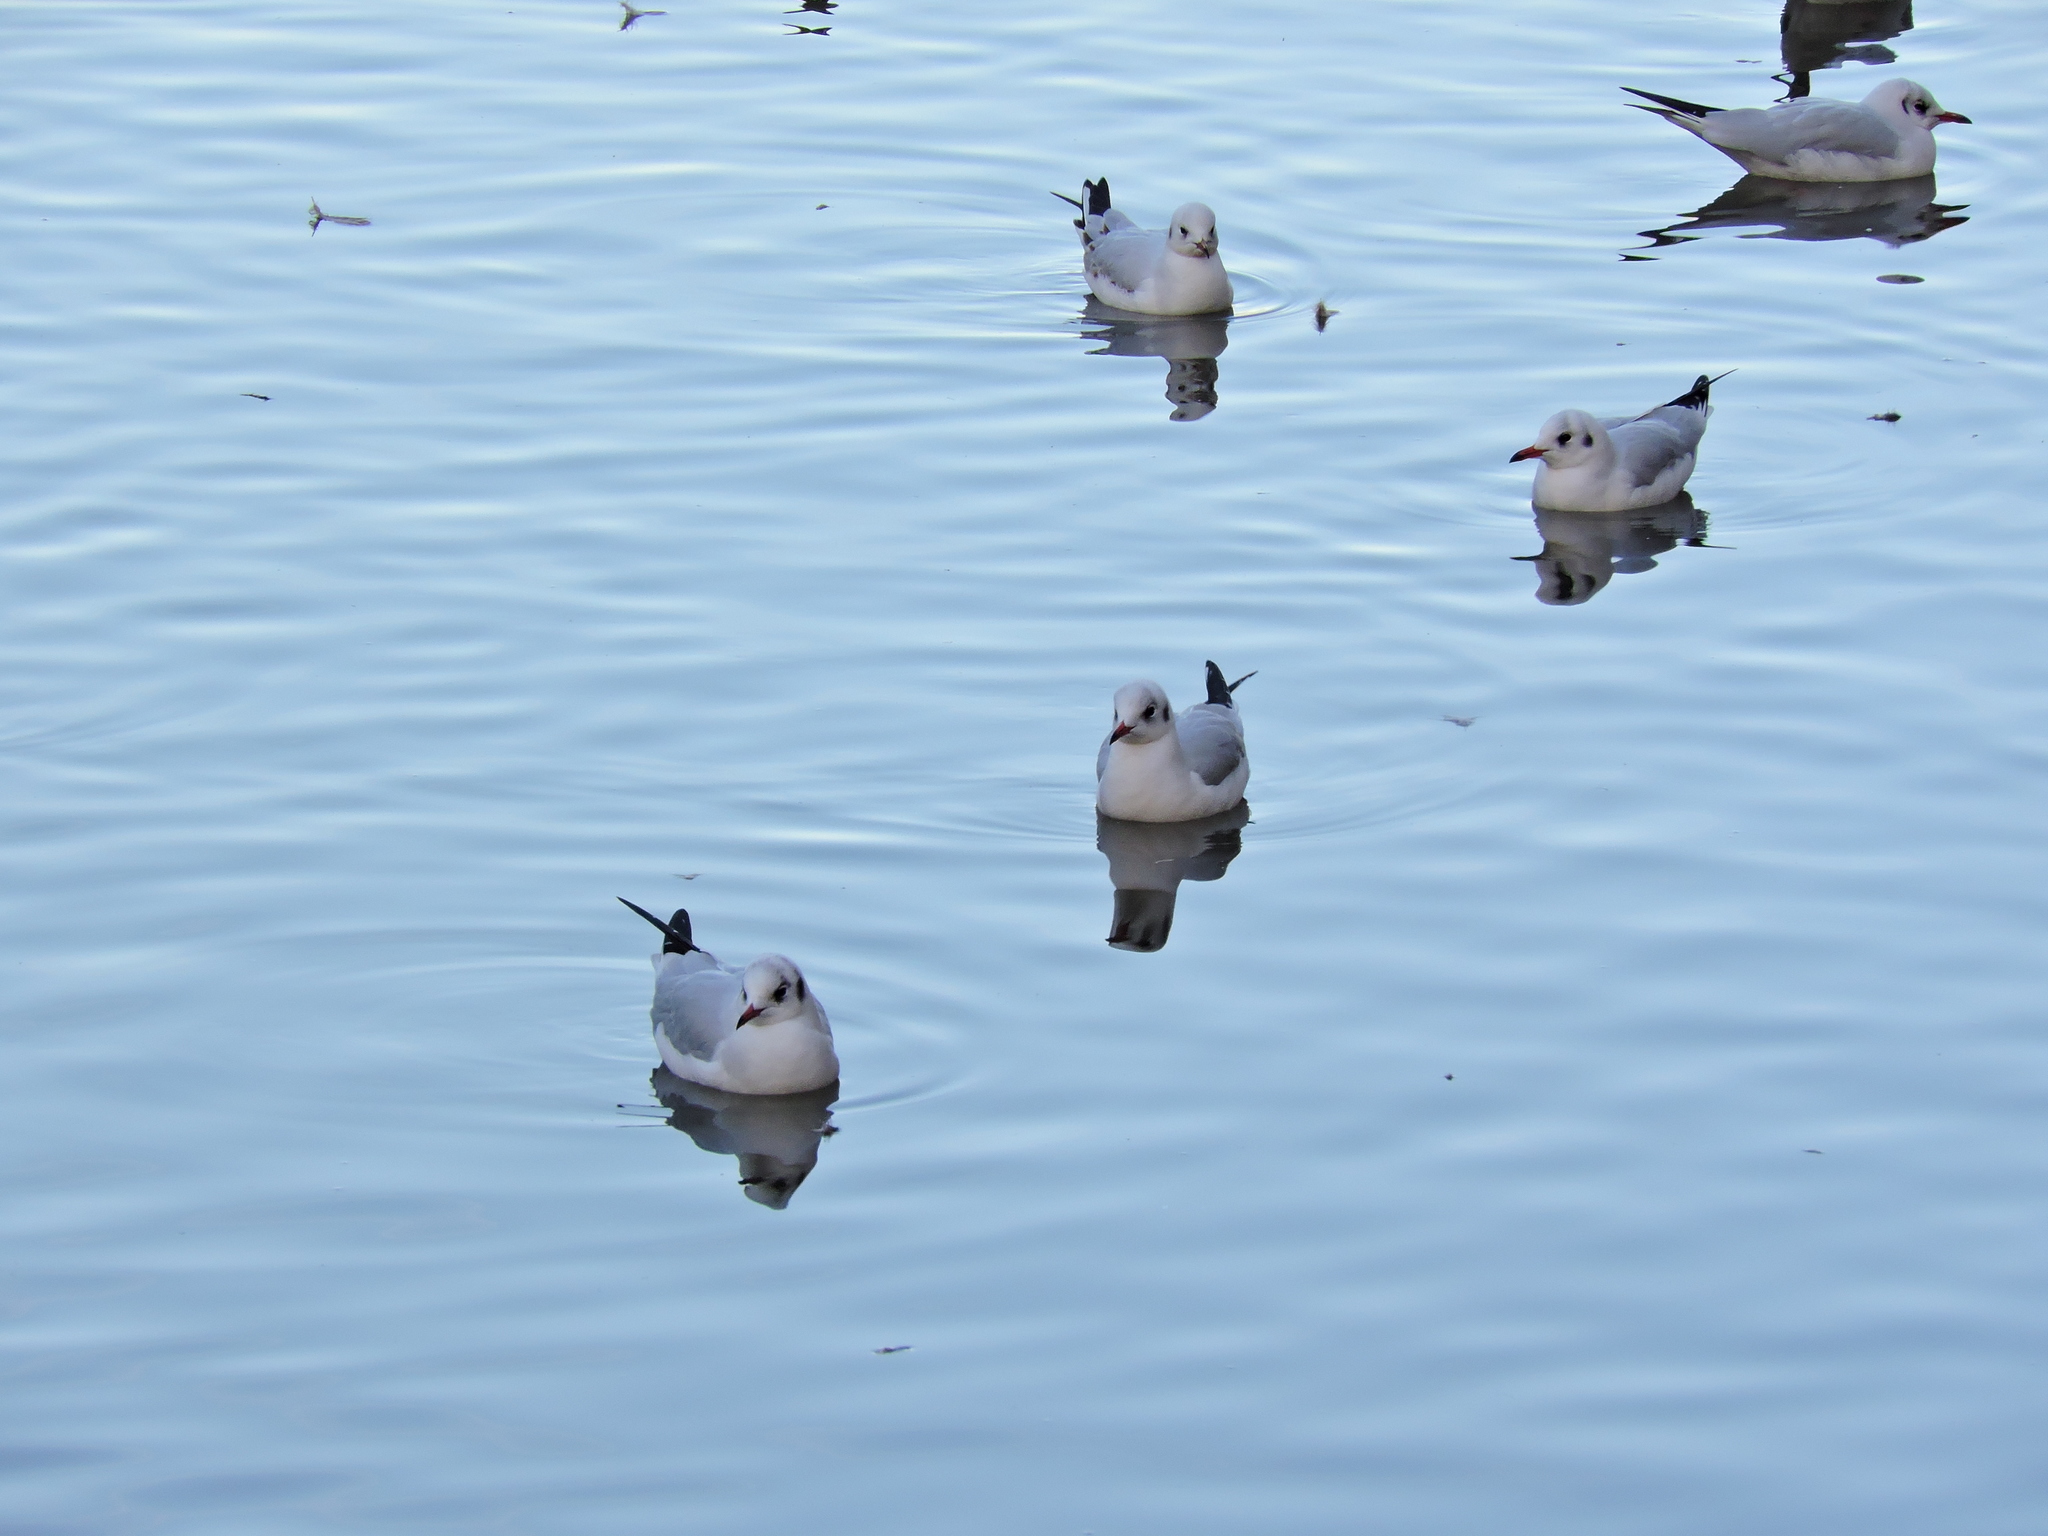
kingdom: Animalia
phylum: Chordata
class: Aves
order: Charadriiformes
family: Laridae
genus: Chroicocephalus
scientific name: Chroicocephalus ridibundus
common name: Black-headed gull
